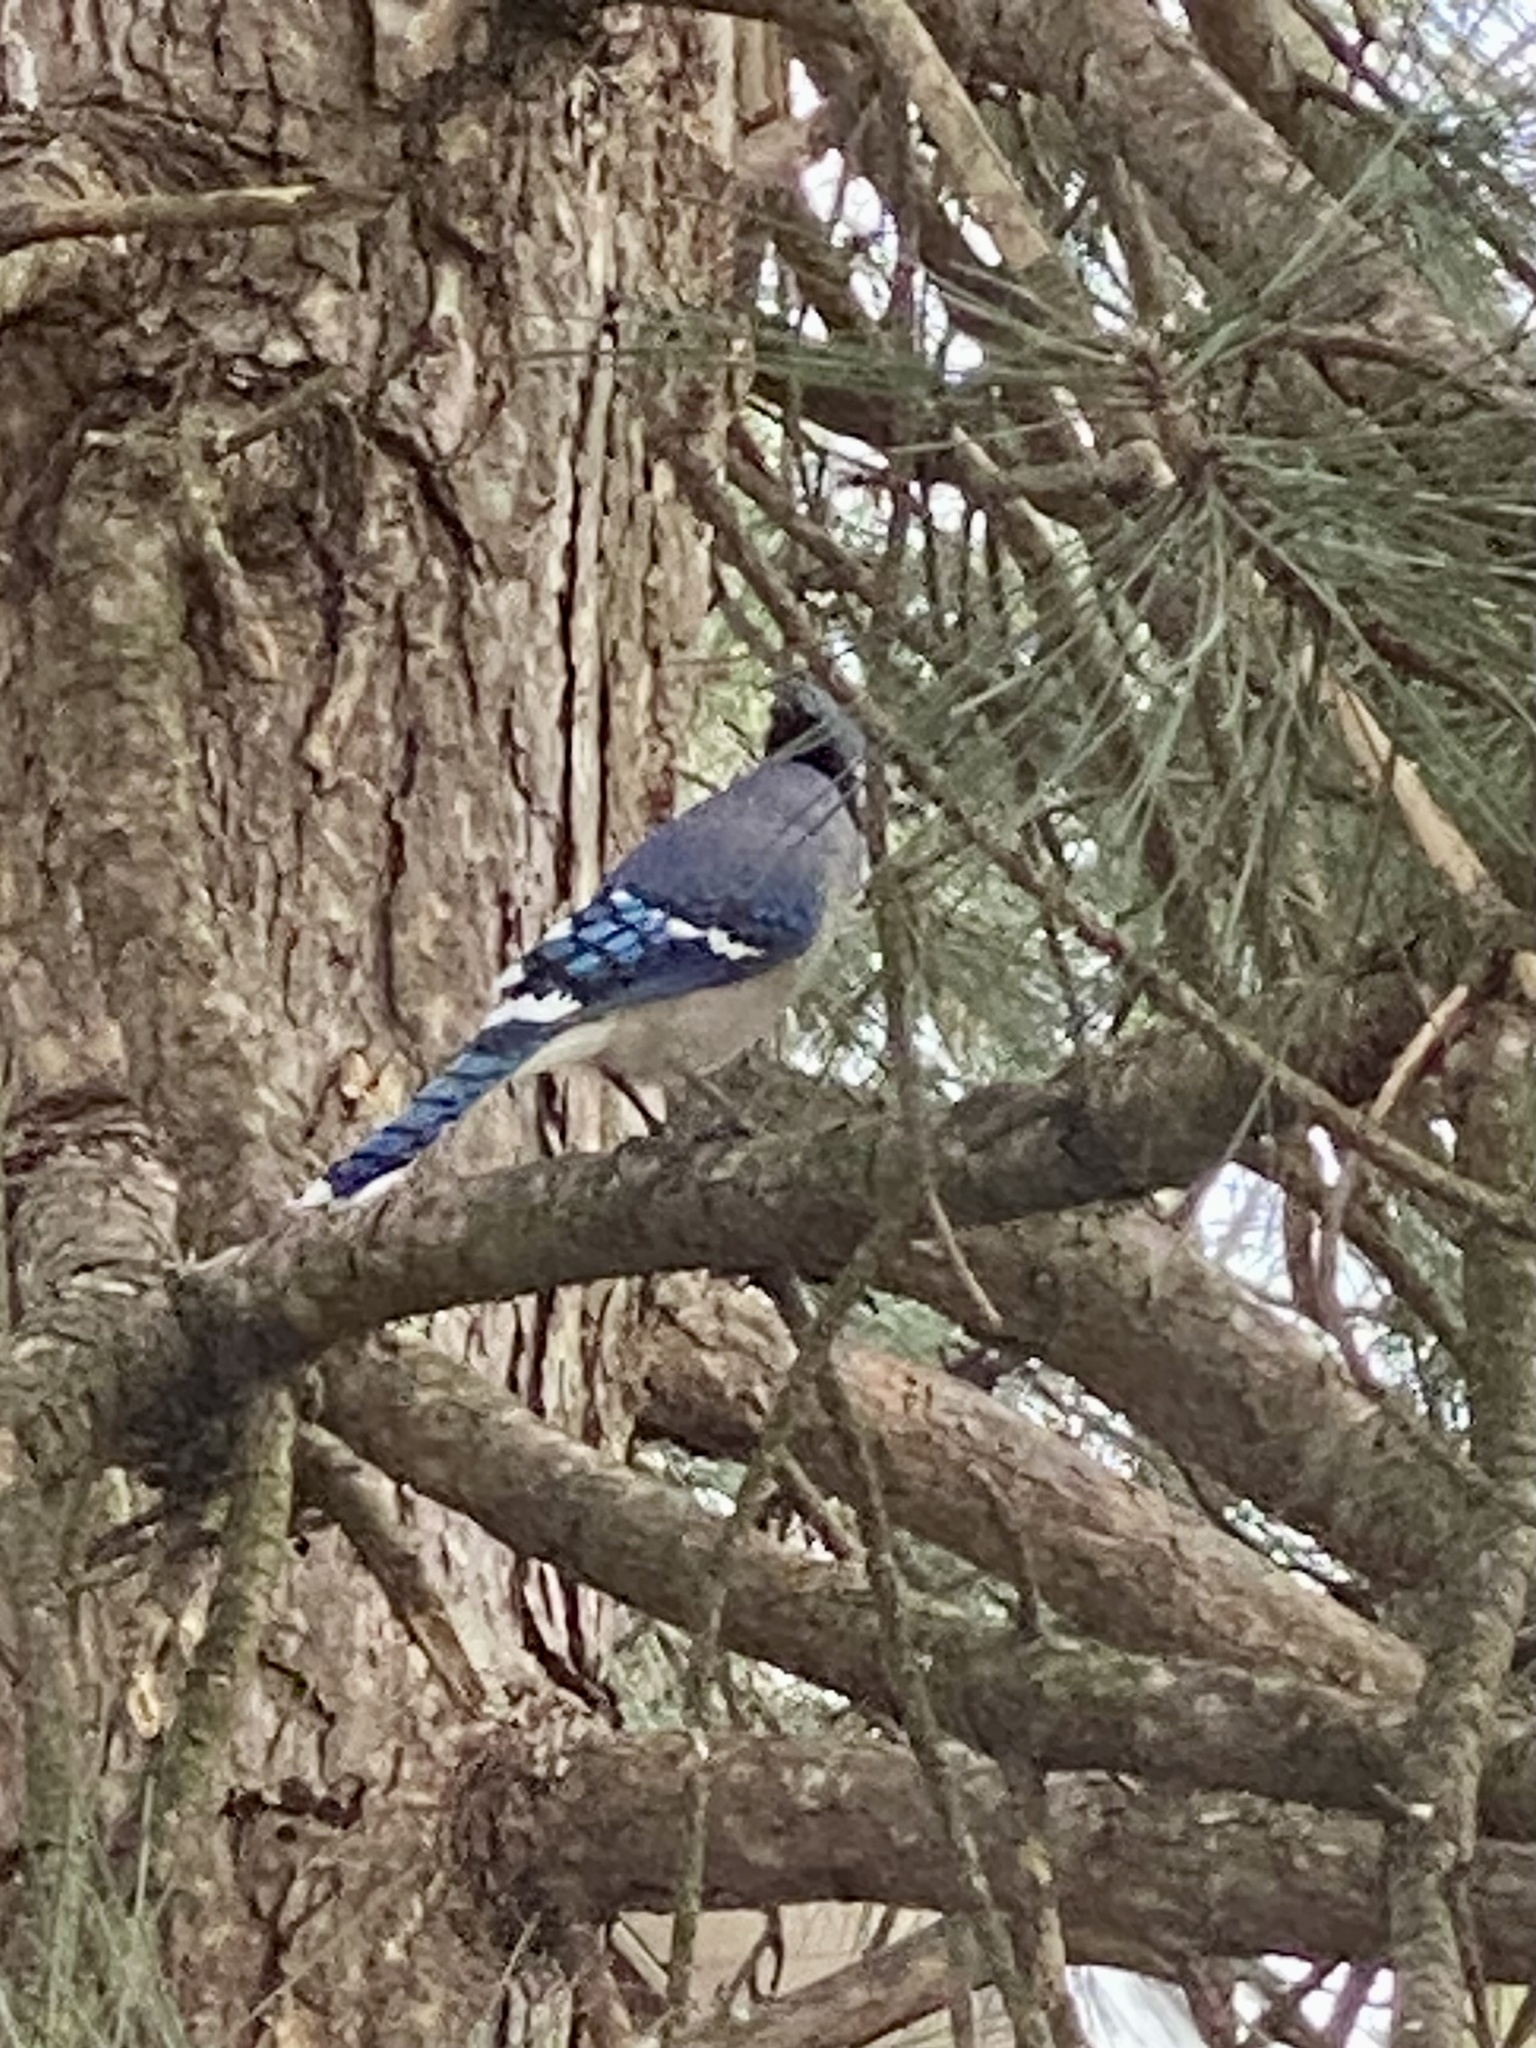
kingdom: Animalia
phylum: Chordata
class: Aves
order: Passeriformes
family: Corvidae
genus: Cyanocitta
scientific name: Cyanocitta cristata
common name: Blue jay
